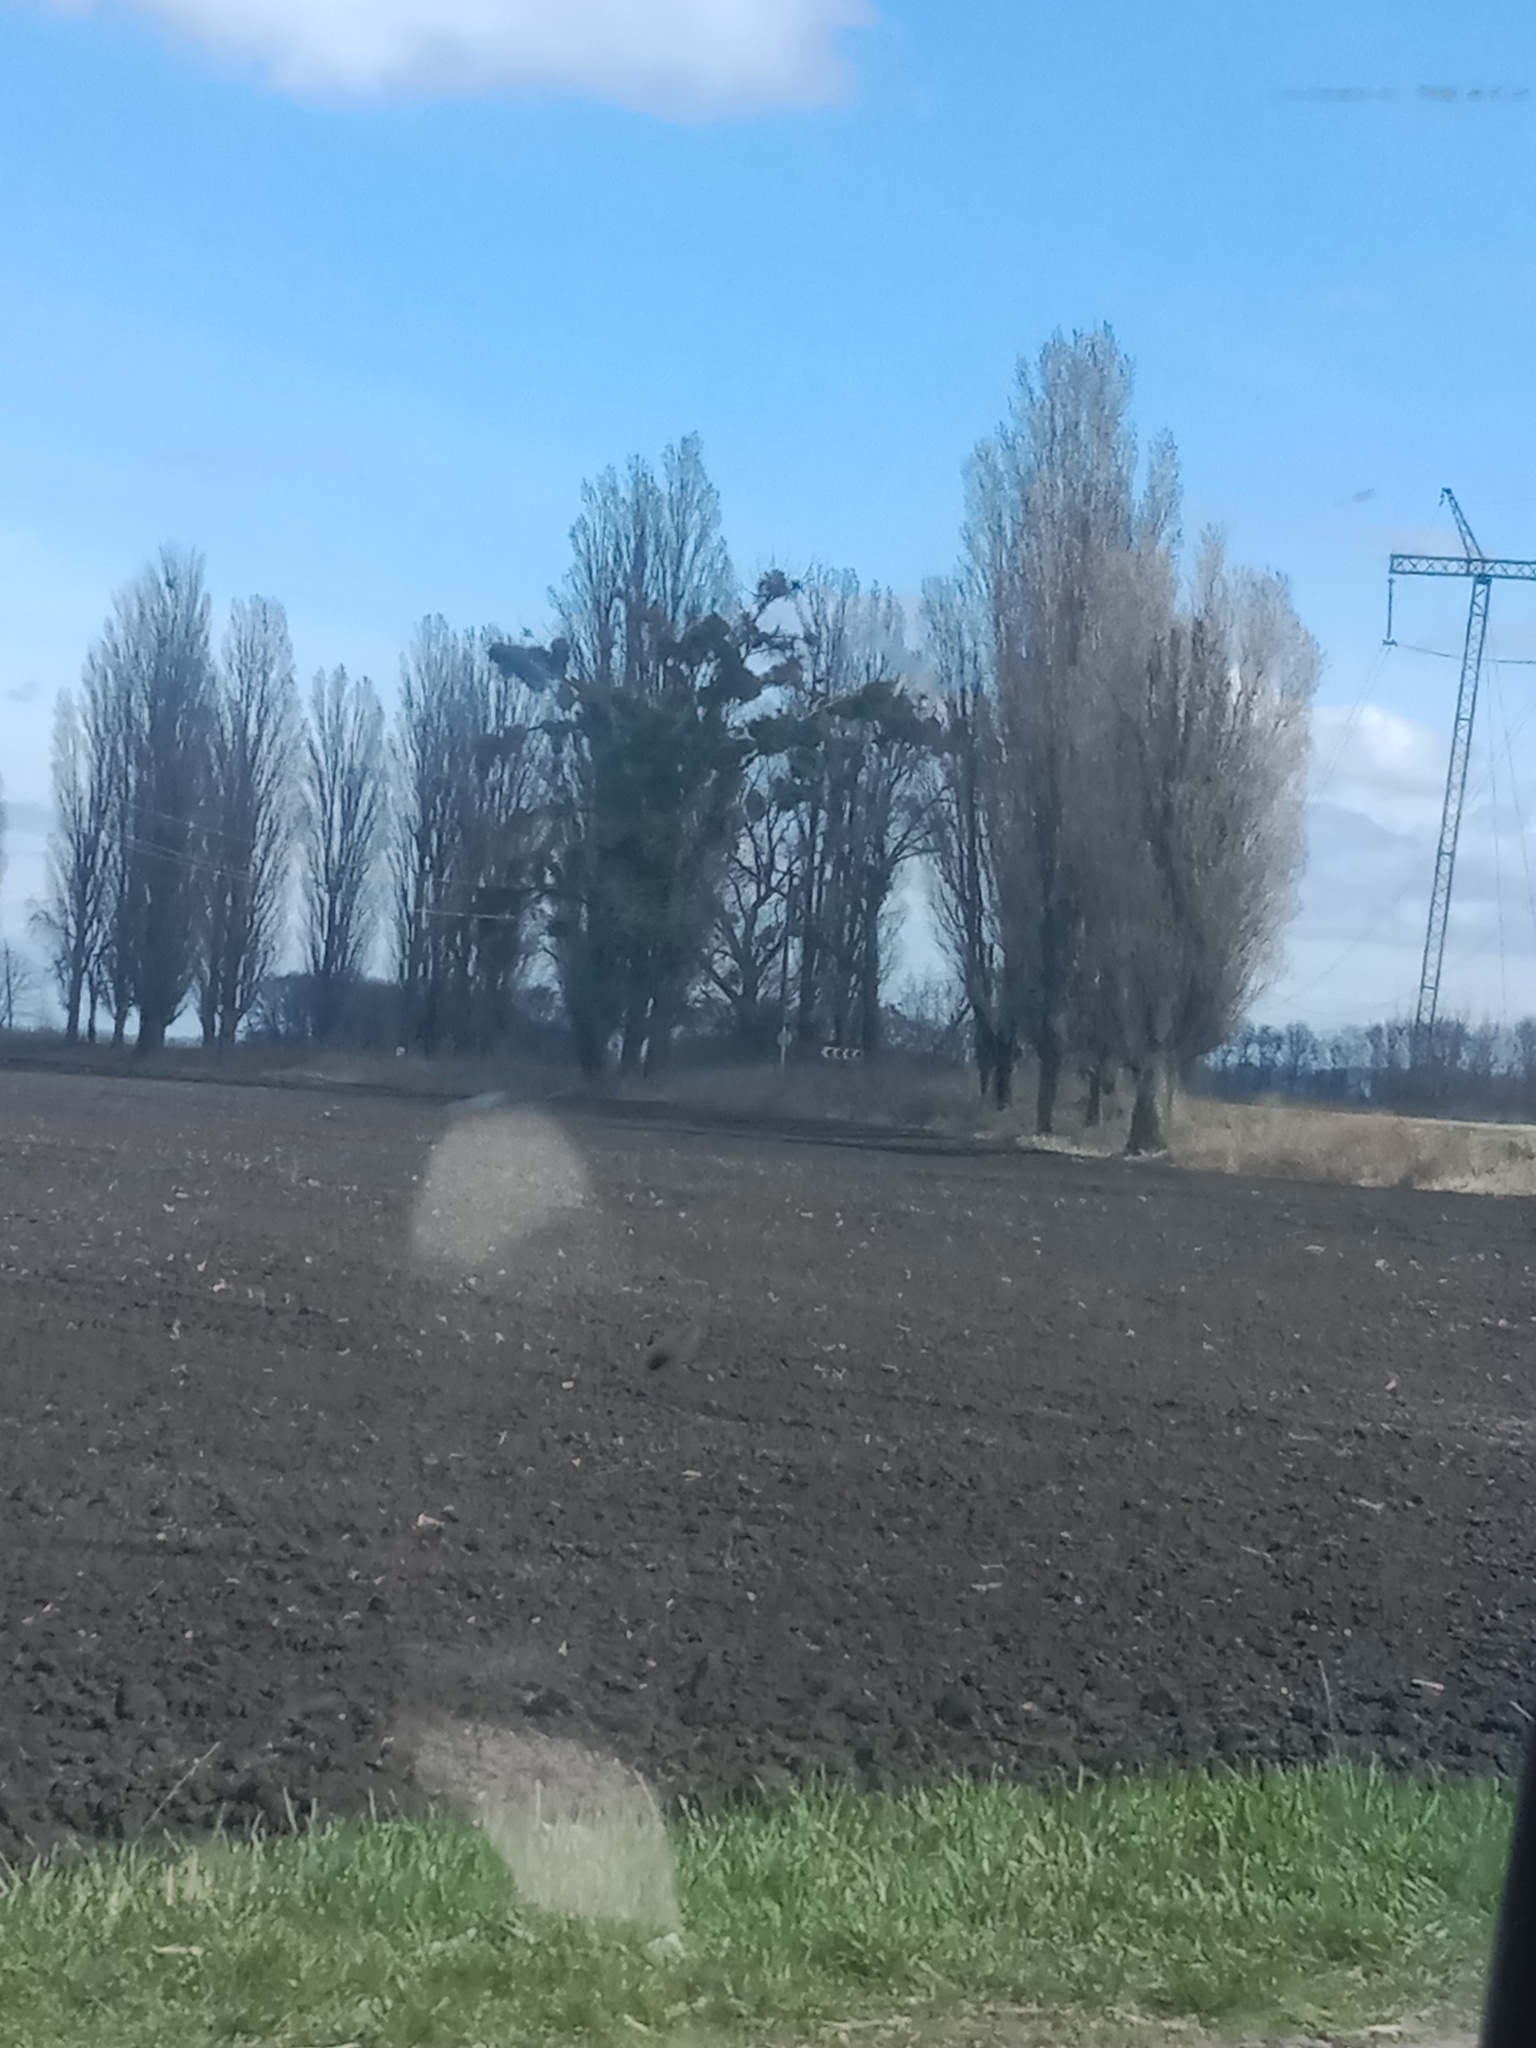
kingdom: Plantae
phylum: Tracheophyta
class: Magnoliopsida
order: Santalales
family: Viscaceae
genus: Viscum
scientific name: Viscum album
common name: Mistletoe
